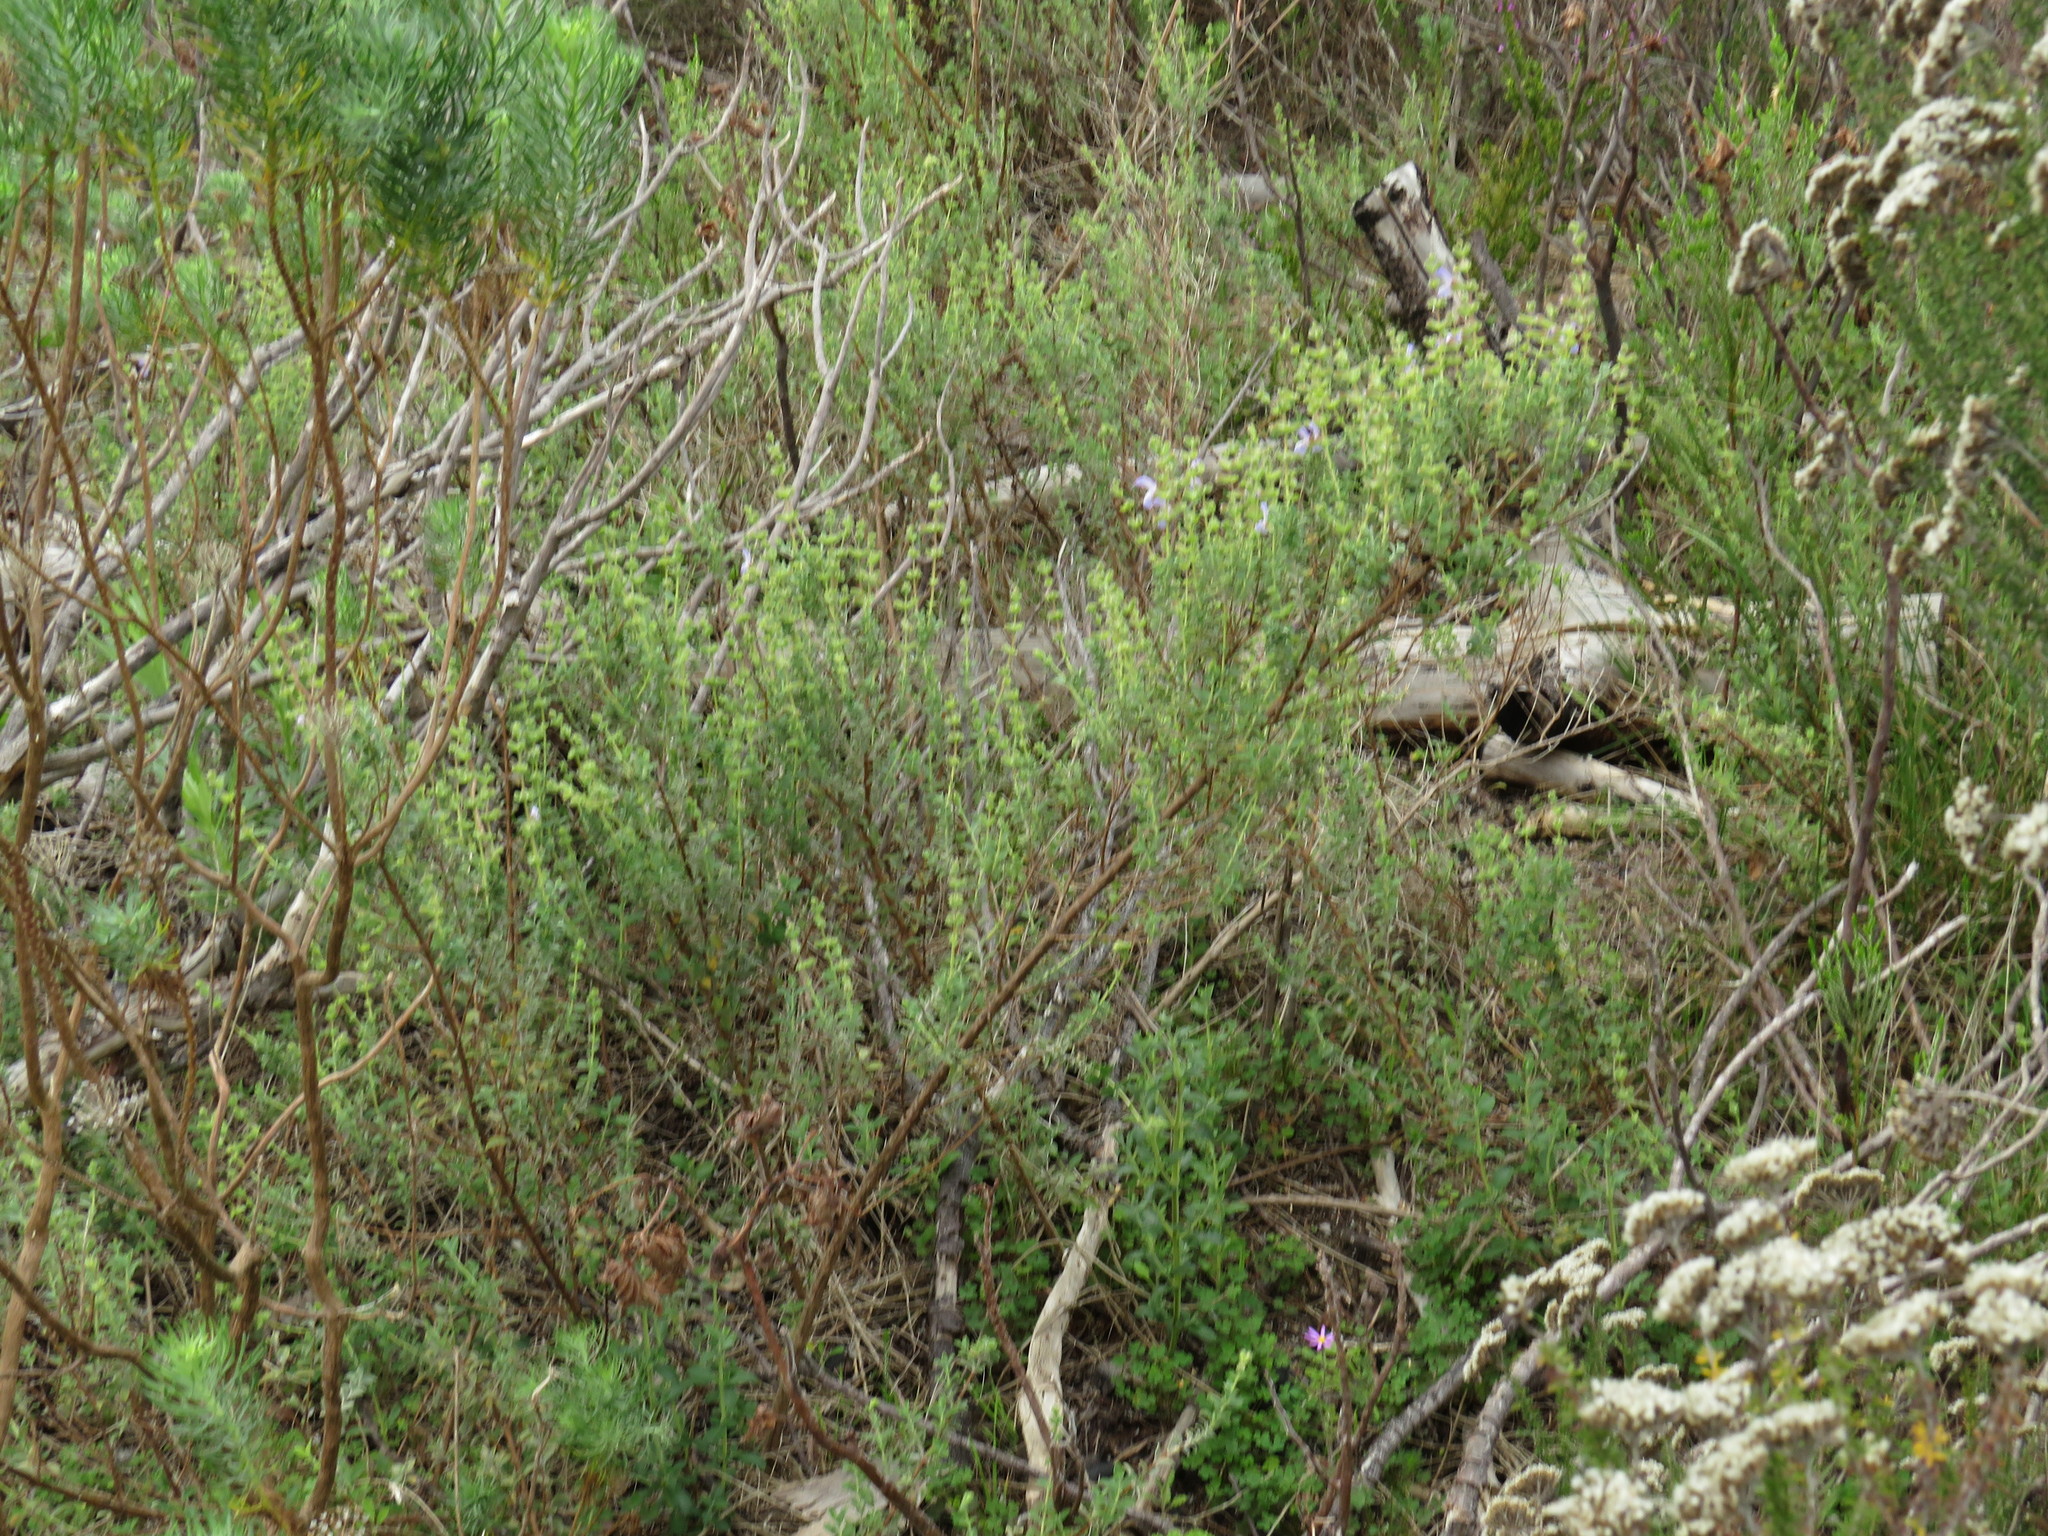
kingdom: Plantae
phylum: Tracheophyta
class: Magnoliopsida
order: Lamiales
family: Lamiaceae
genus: Salvia
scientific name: Salvia africana
